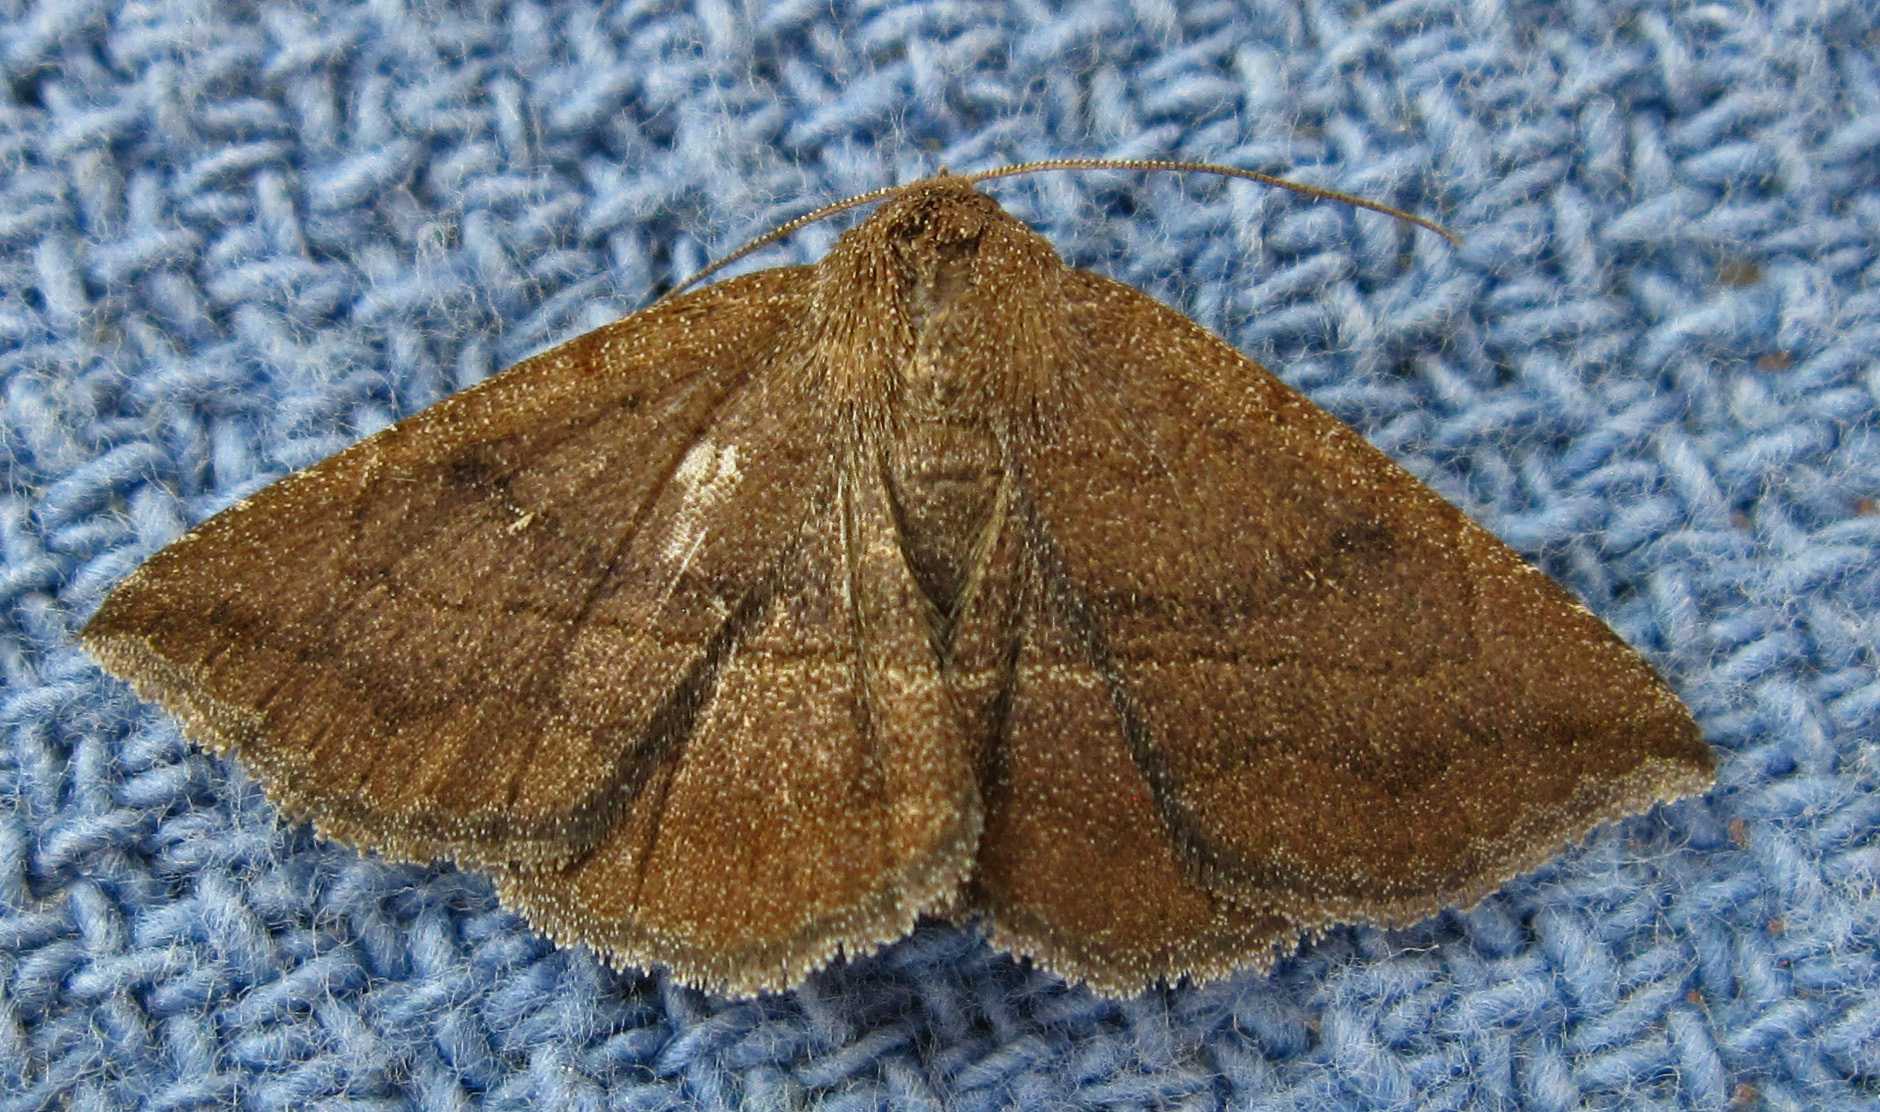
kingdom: Animalia
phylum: Arthropoda
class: Insecta
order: Lepidoptera
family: Erebidae
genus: Lesmone
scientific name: Lesmone detrahens
